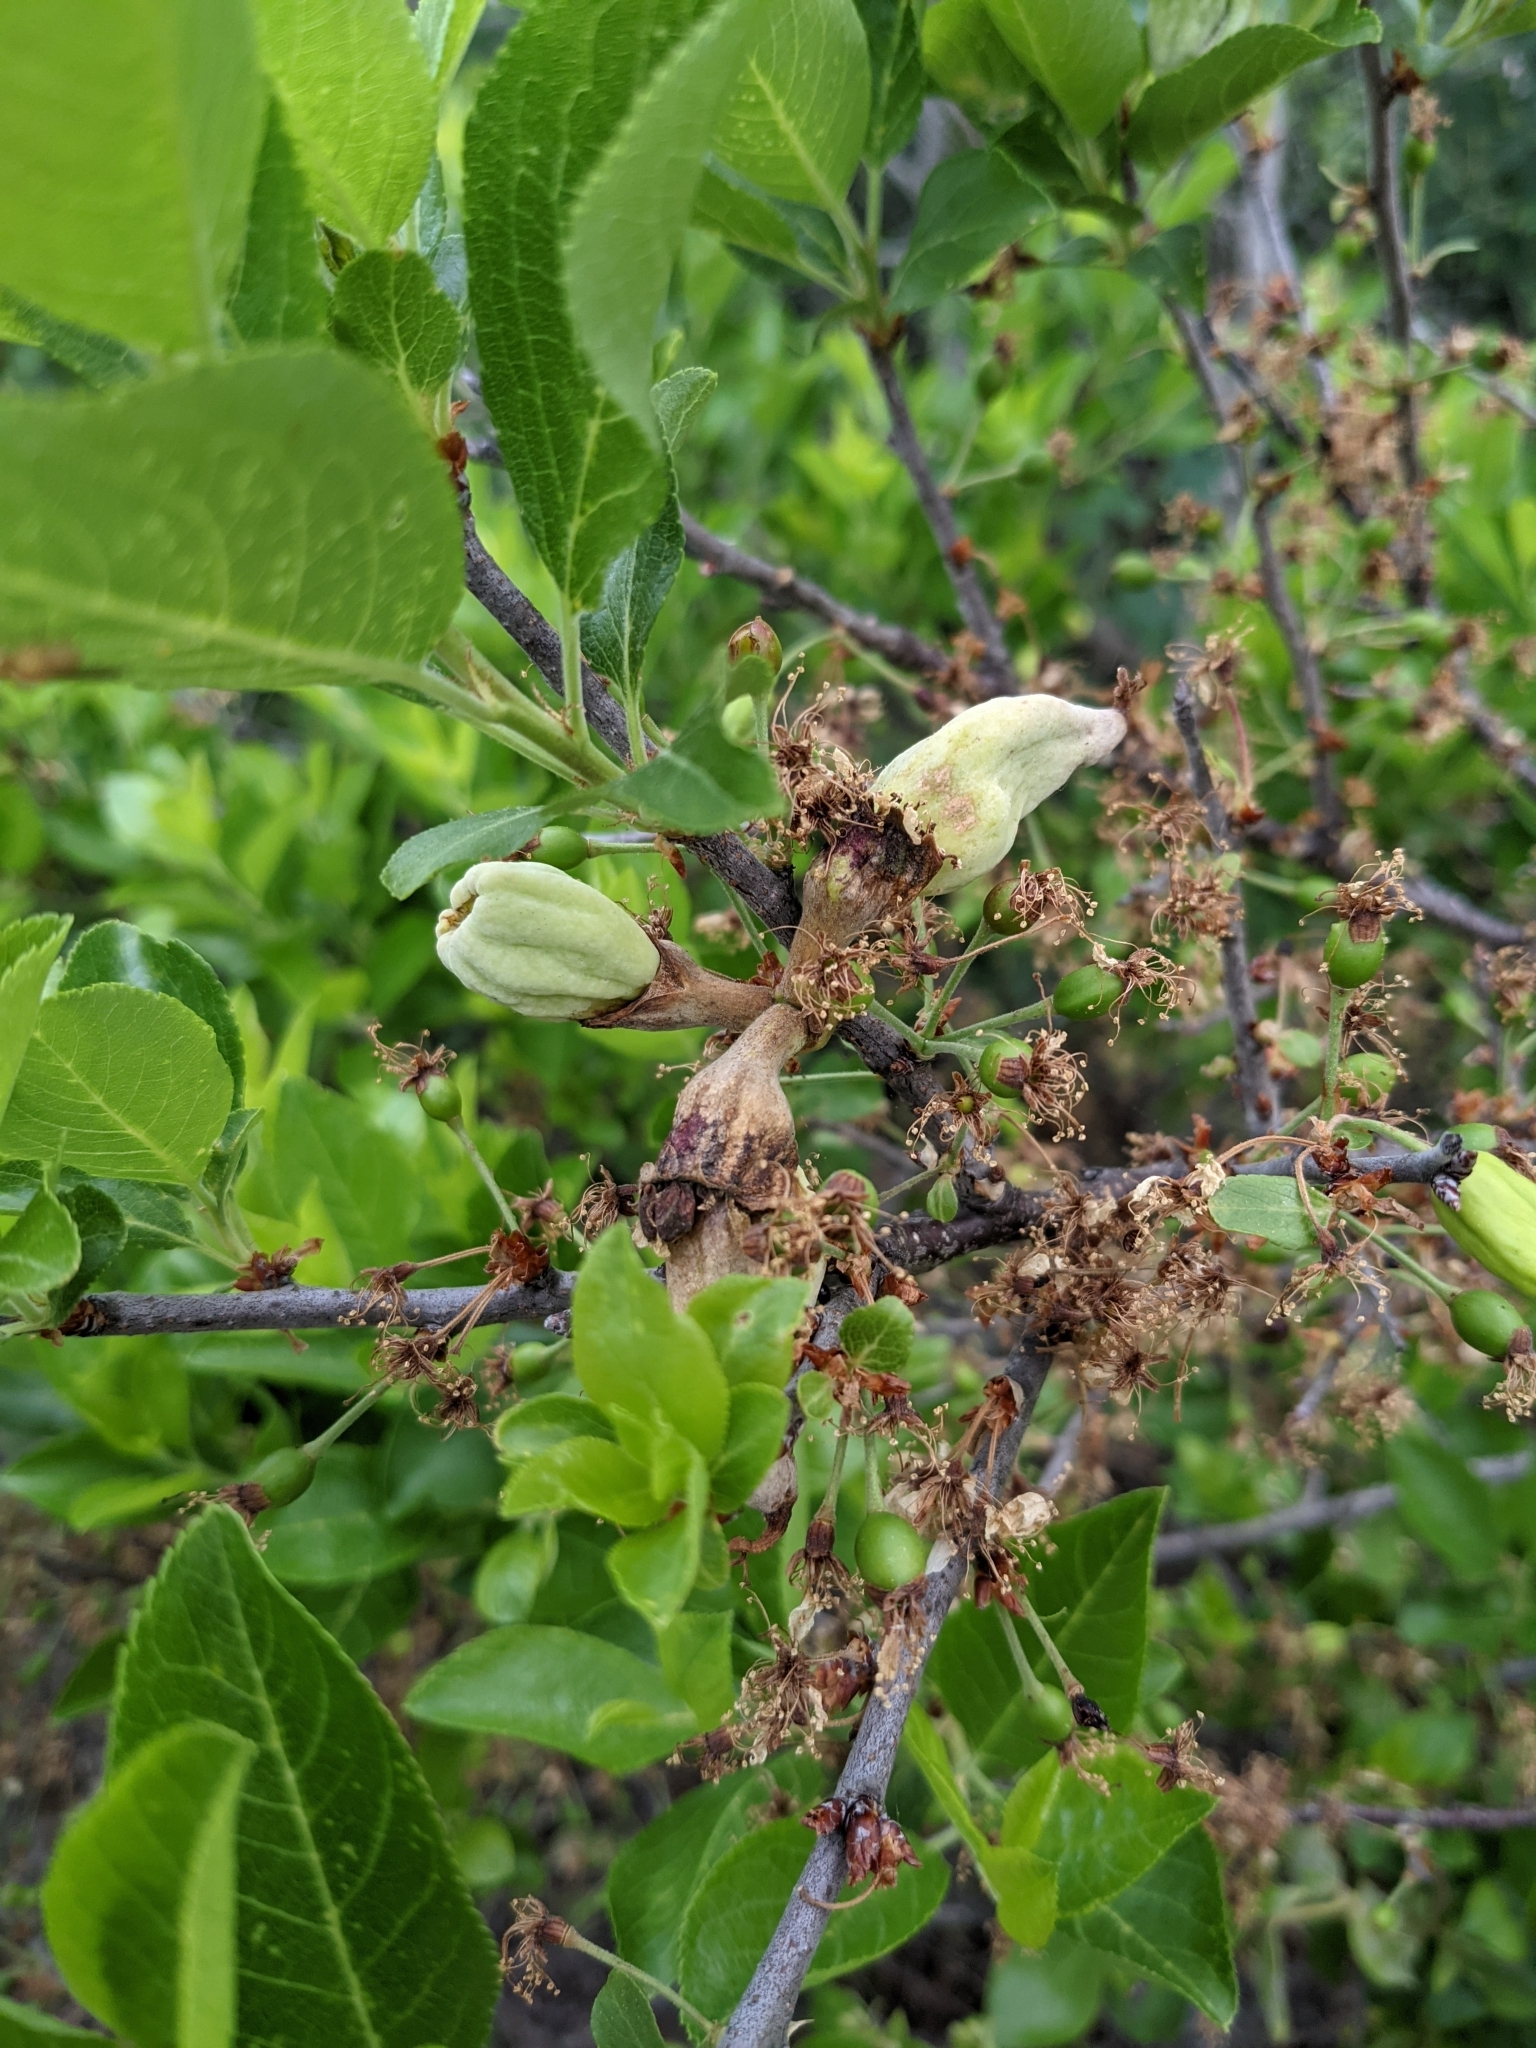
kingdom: Plantae
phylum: Tracheophyta
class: Magnoliopsida
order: Rosales
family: Rosaceae
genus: Prunus
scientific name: Prunus maritima
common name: Beach plum
